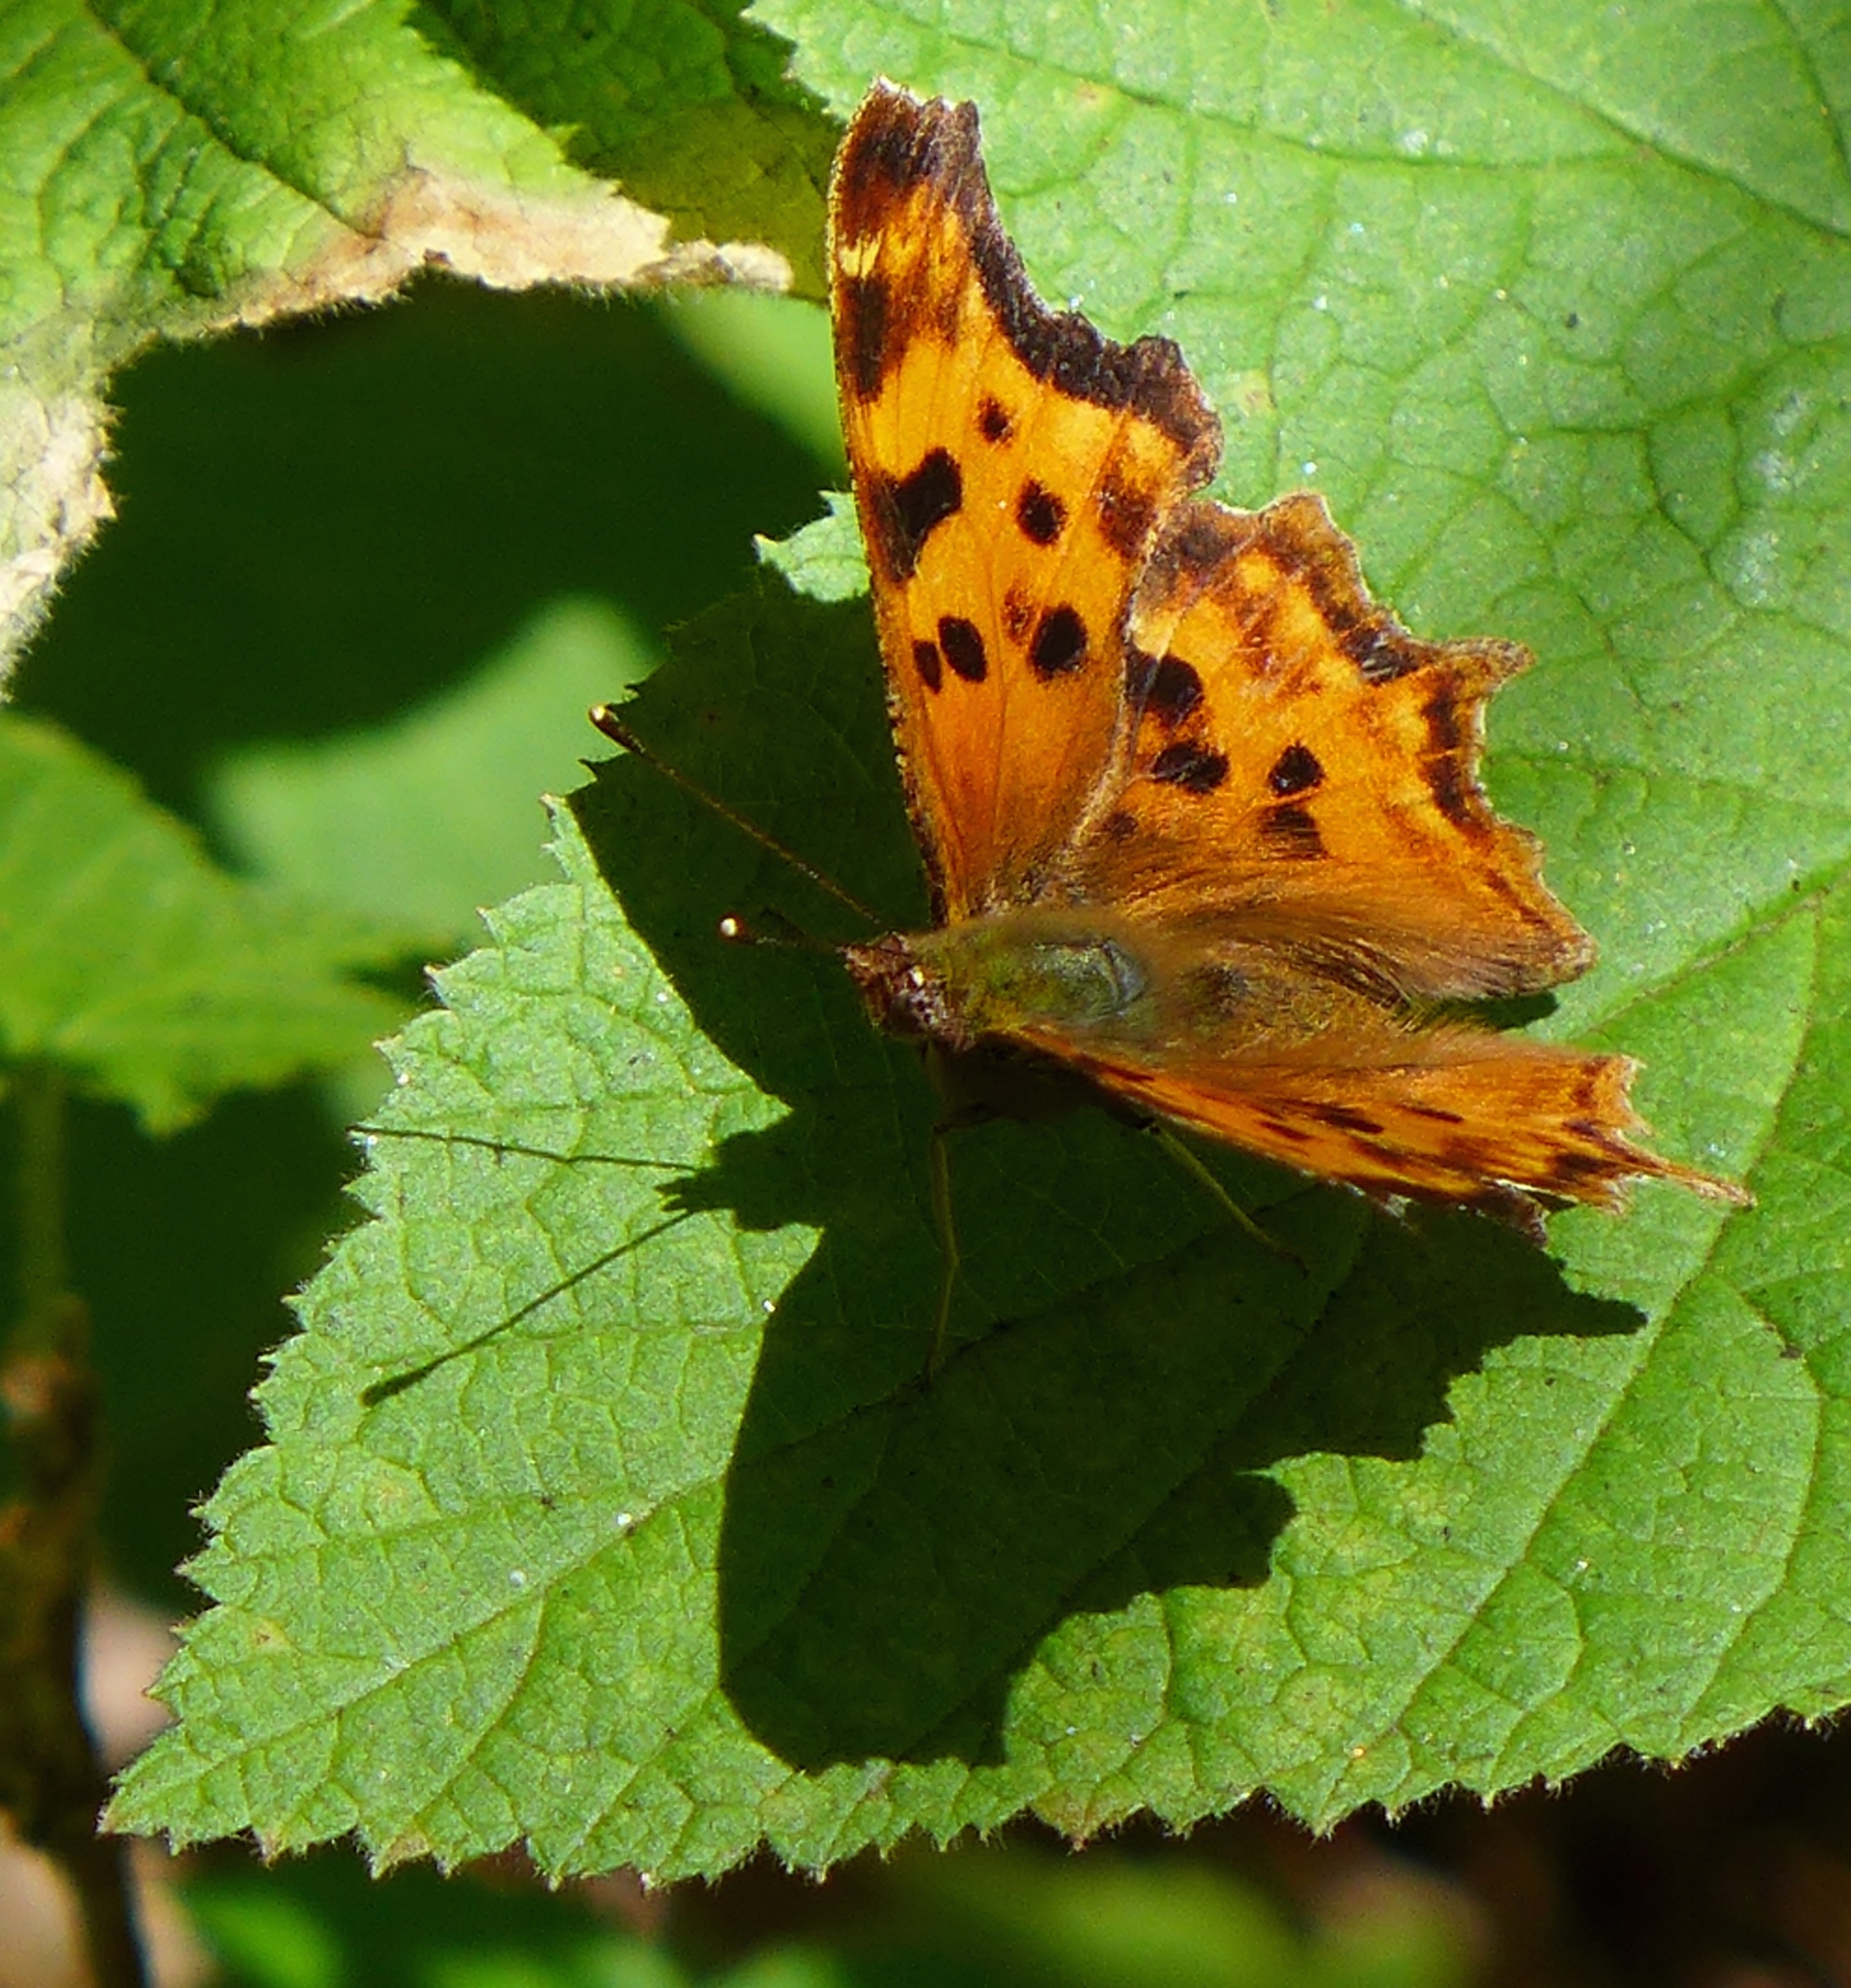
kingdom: Animalia
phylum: Arthropoda
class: Insecta
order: Lepidoptera
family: Nymphalidae
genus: Polygonia
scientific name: Polygonia satyrus
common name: Satyr angle wing
